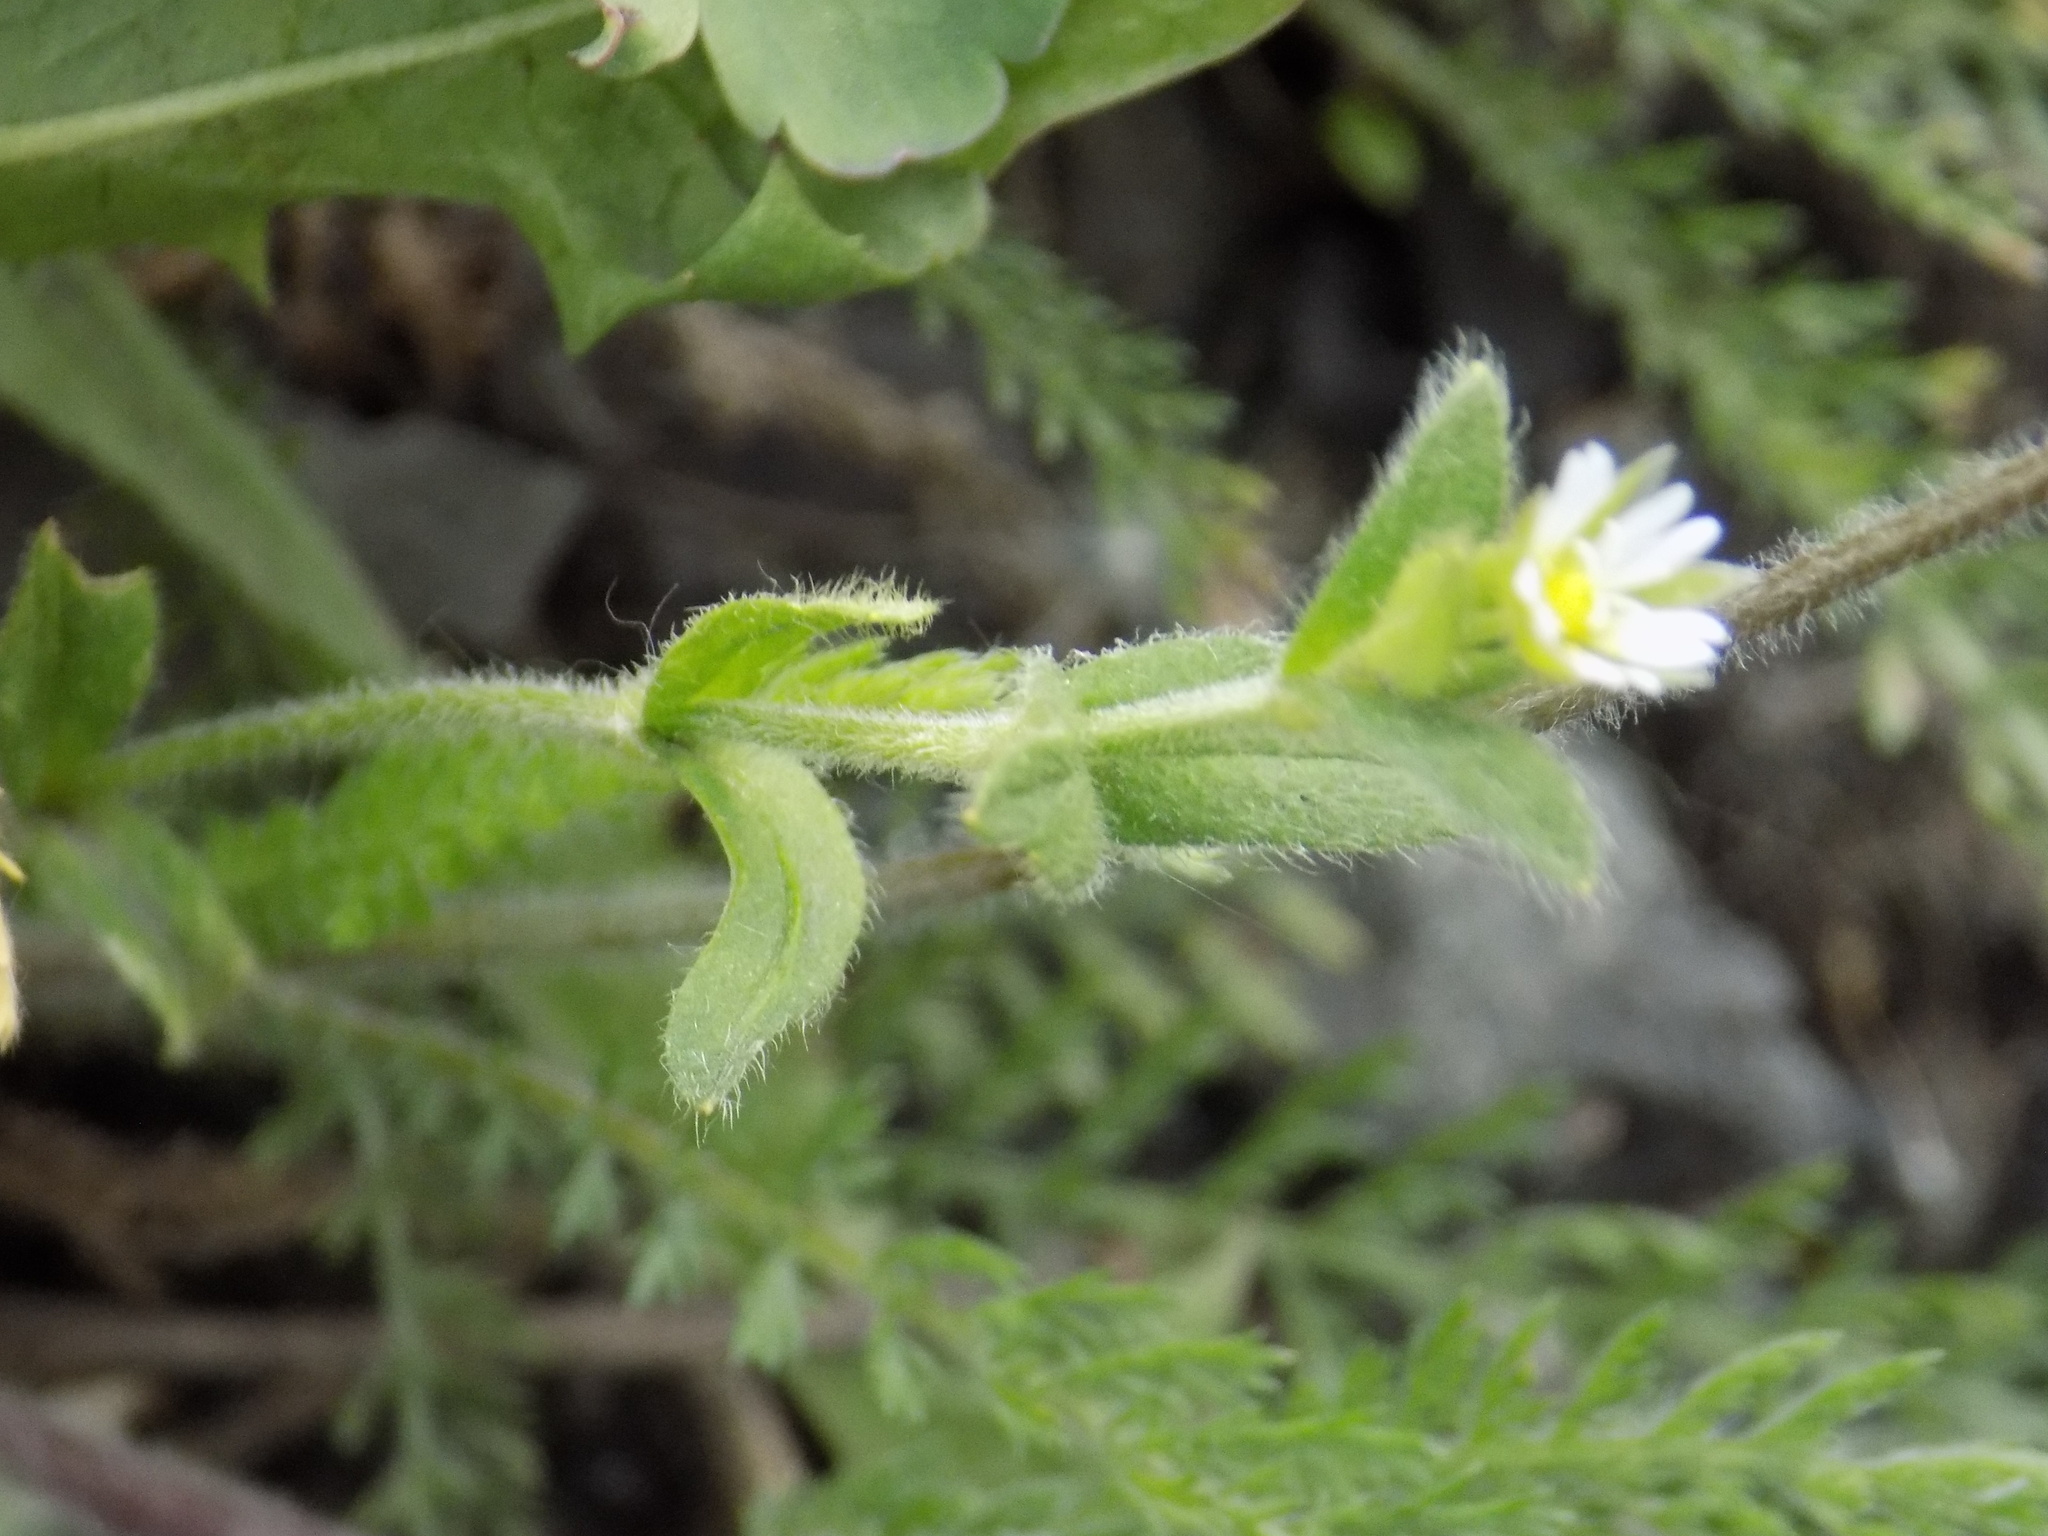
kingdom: Plantae
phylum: Tracheophyta
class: Magnoliopsida
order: Caryophyllales
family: Caryophyllaceae
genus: Cerastium
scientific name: Cerastium holosteoides
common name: Big chickweed
